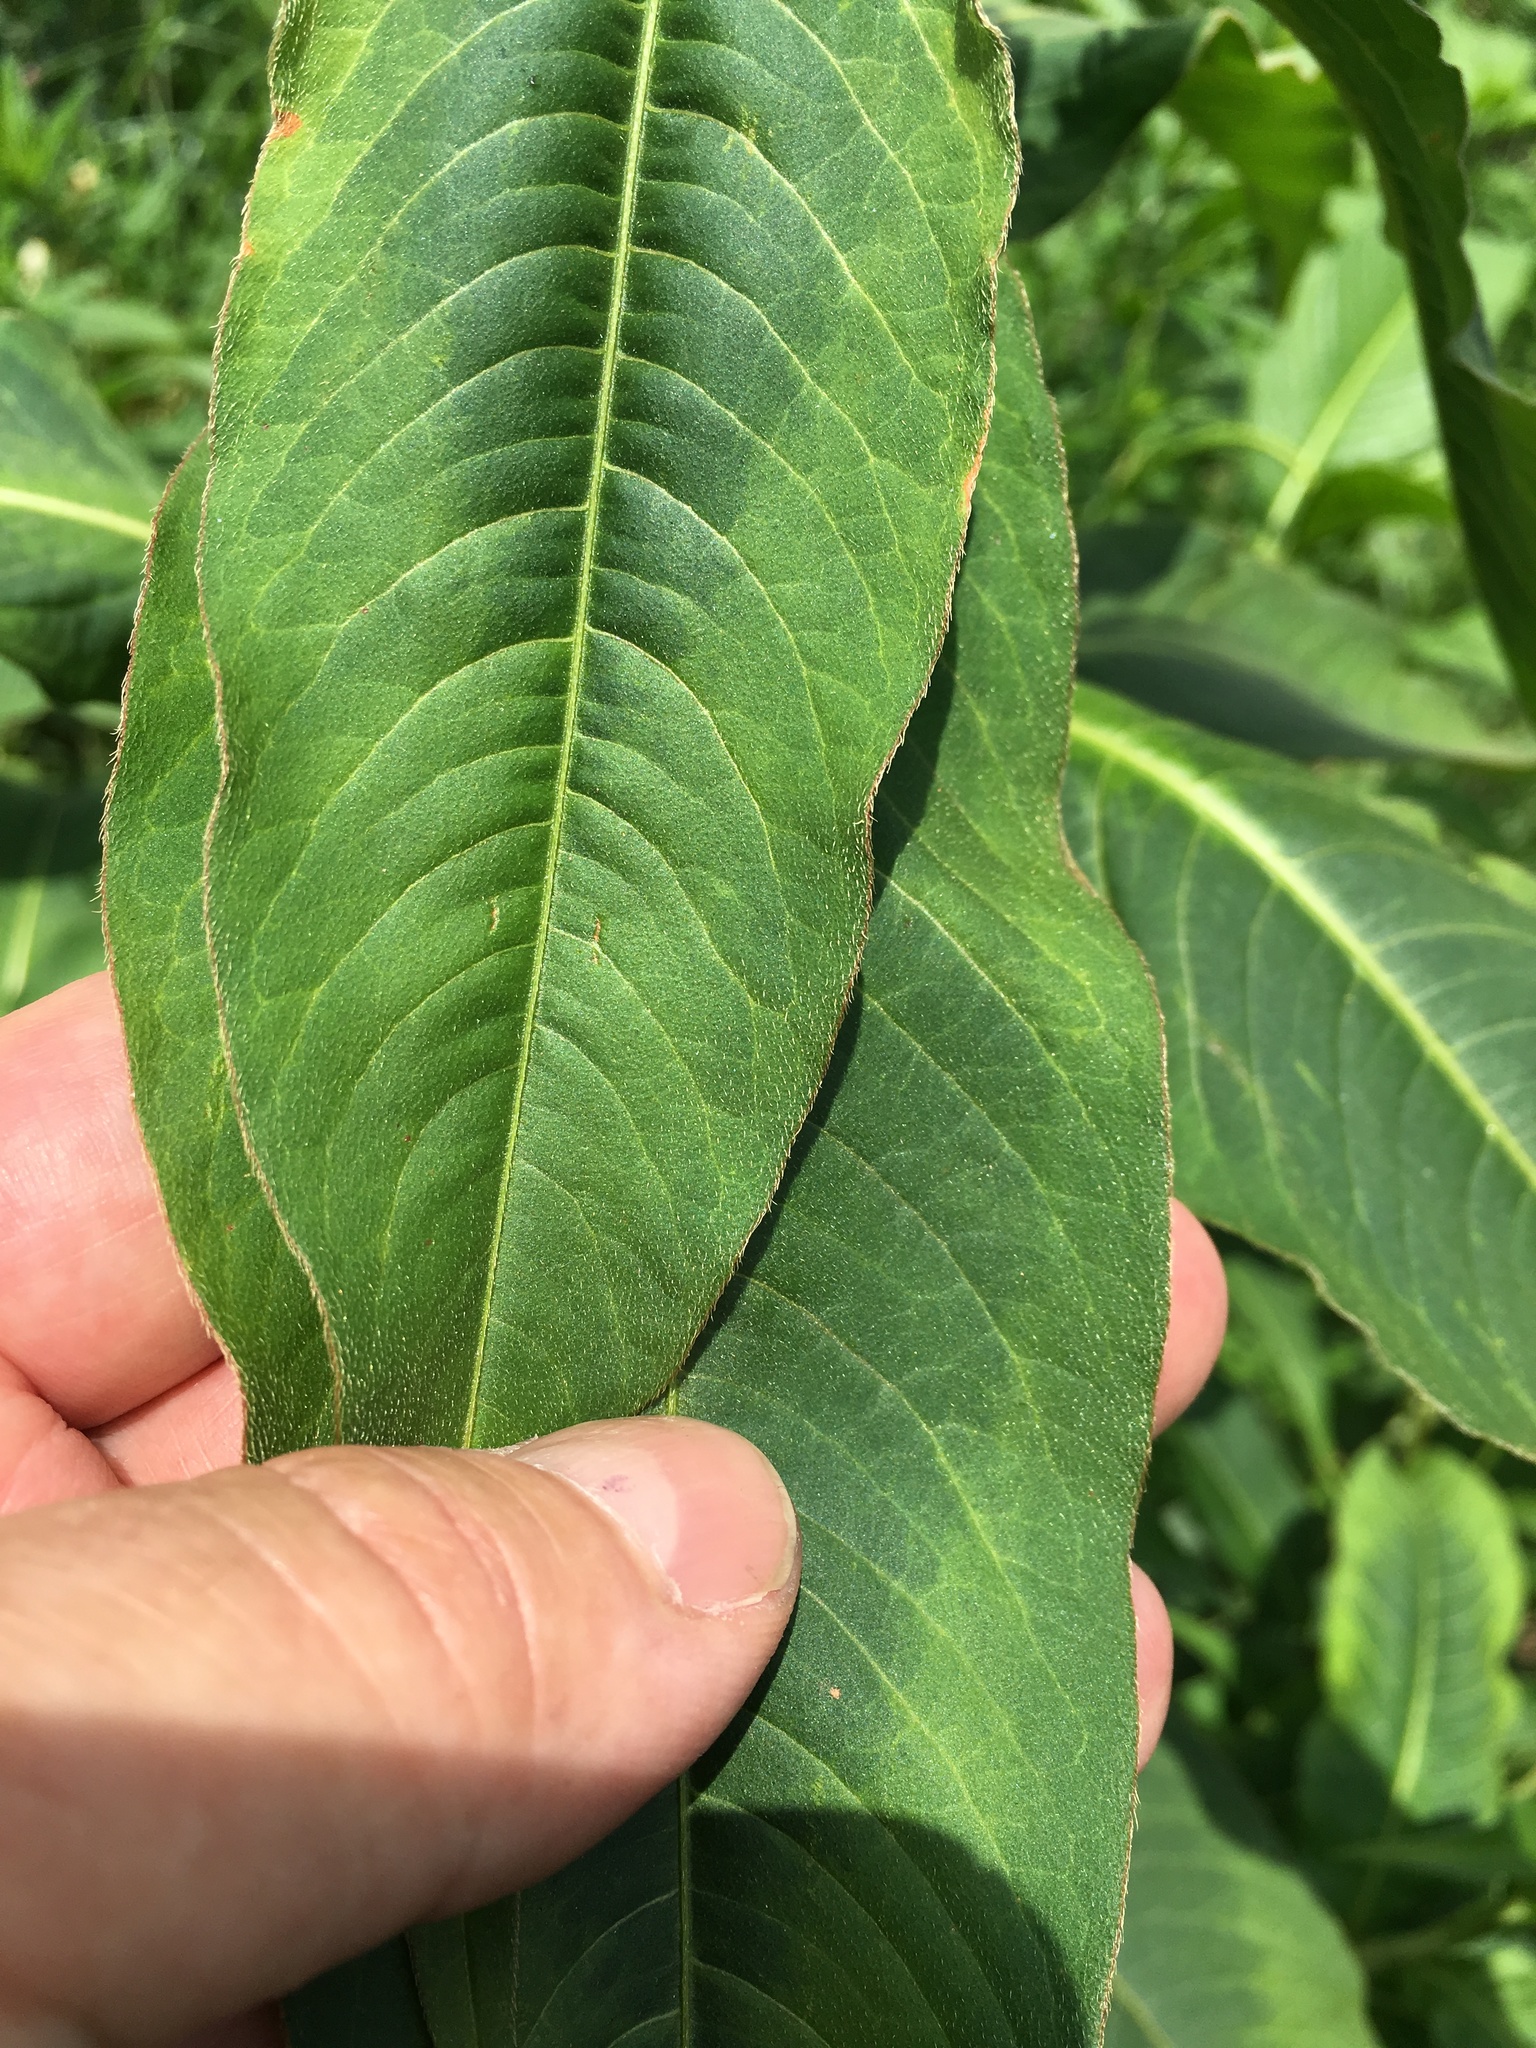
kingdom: Plantae
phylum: Tracheophyta
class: Magnoliopsida
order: Caryophyllales
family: Polygonaceae
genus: Persicaria
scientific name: Persicaria extremiorientalis
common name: Far-eastern smartweed
